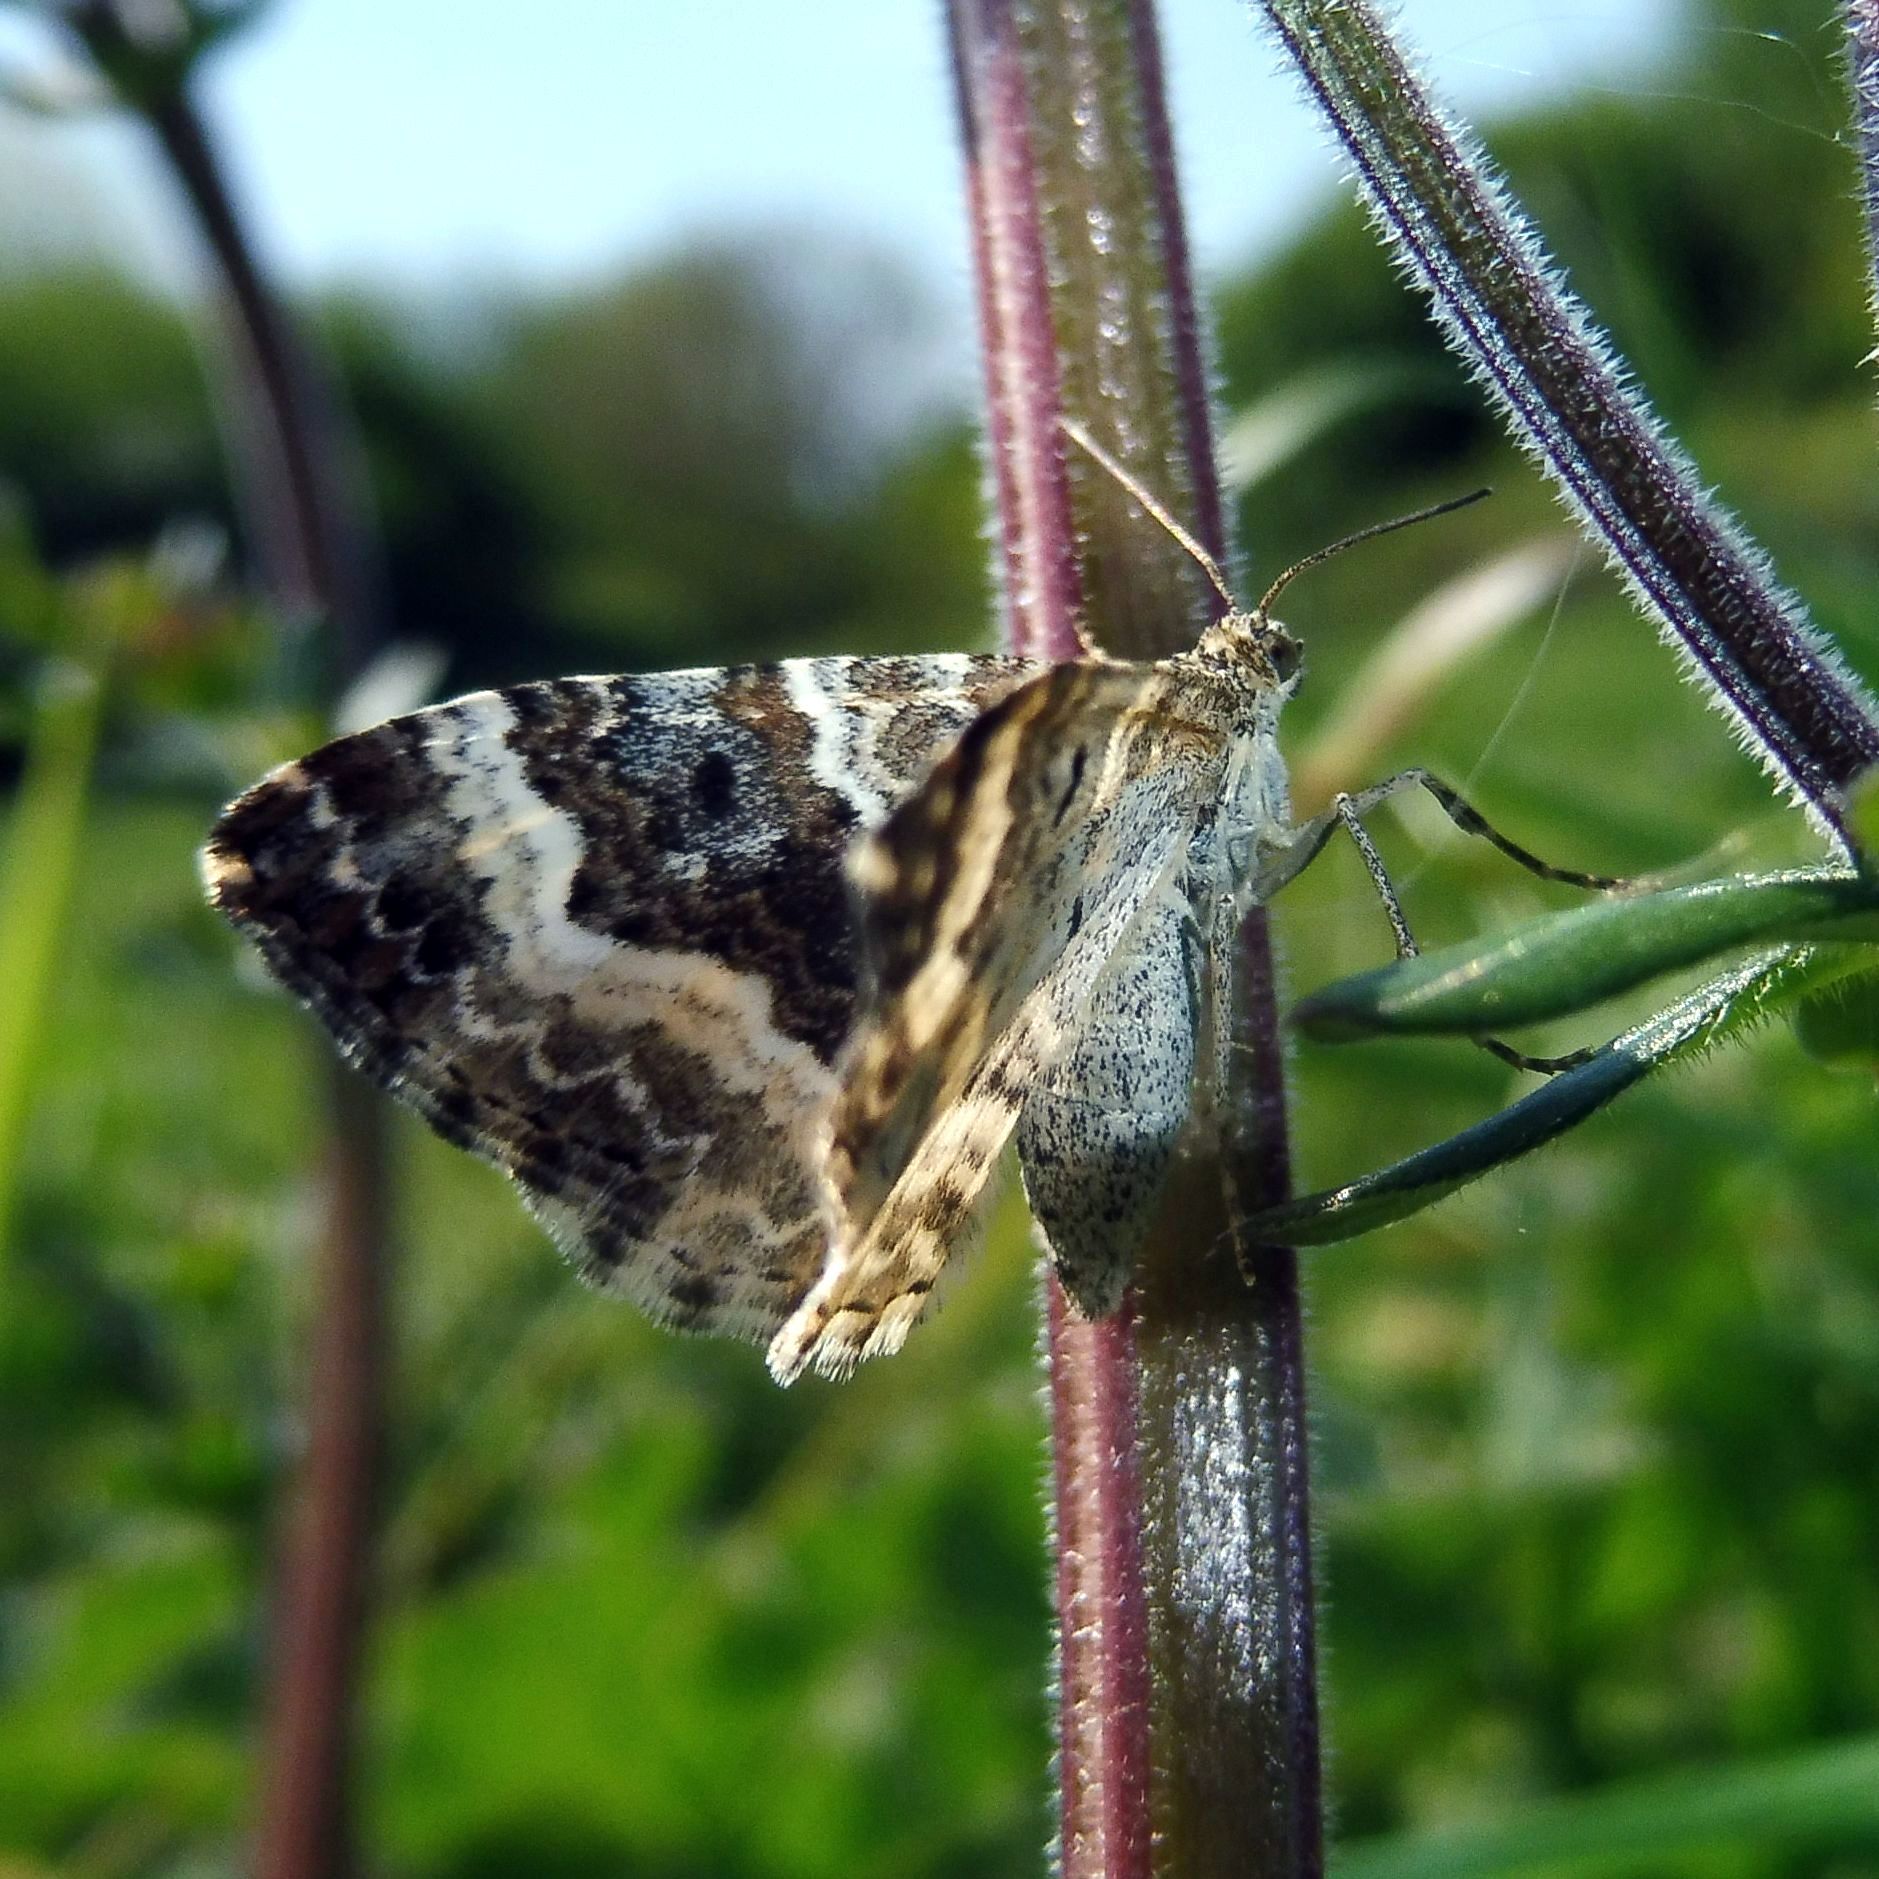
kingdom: Animalia
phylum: Arthropoda
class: Insecta
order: Lepidoptera
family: Geometridae
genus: Epirrhoe
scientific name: Epirrhoe alternata
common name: Common carpet
